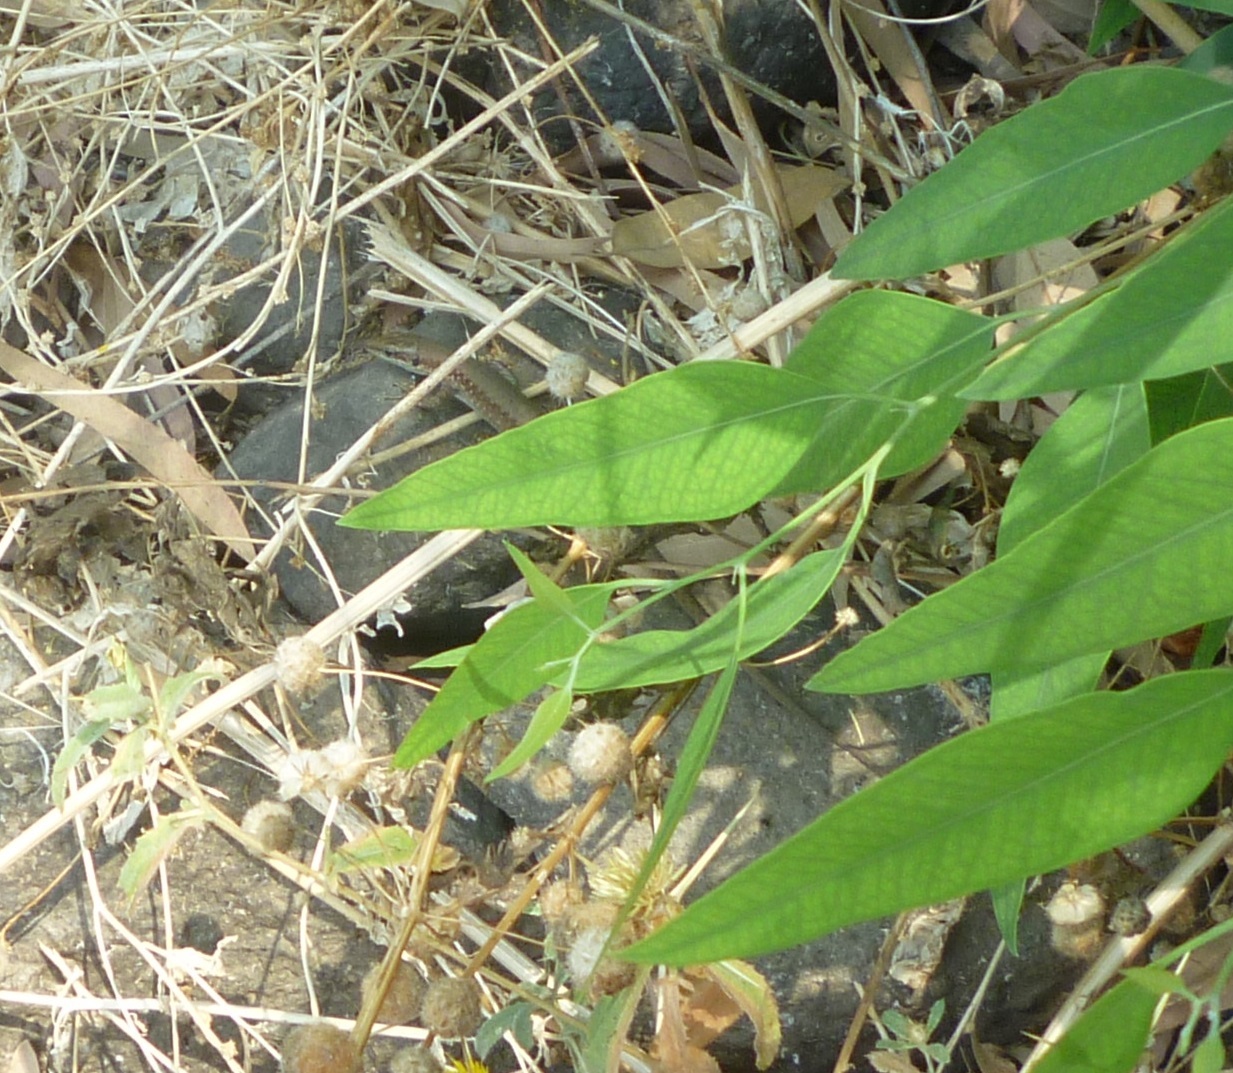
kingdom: Animalia
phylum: Chordata
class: Squamata
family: Lacertidae
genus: Phoenicolacerta
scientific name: Phoenicolacerta laevis
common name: Lebanon lizard
